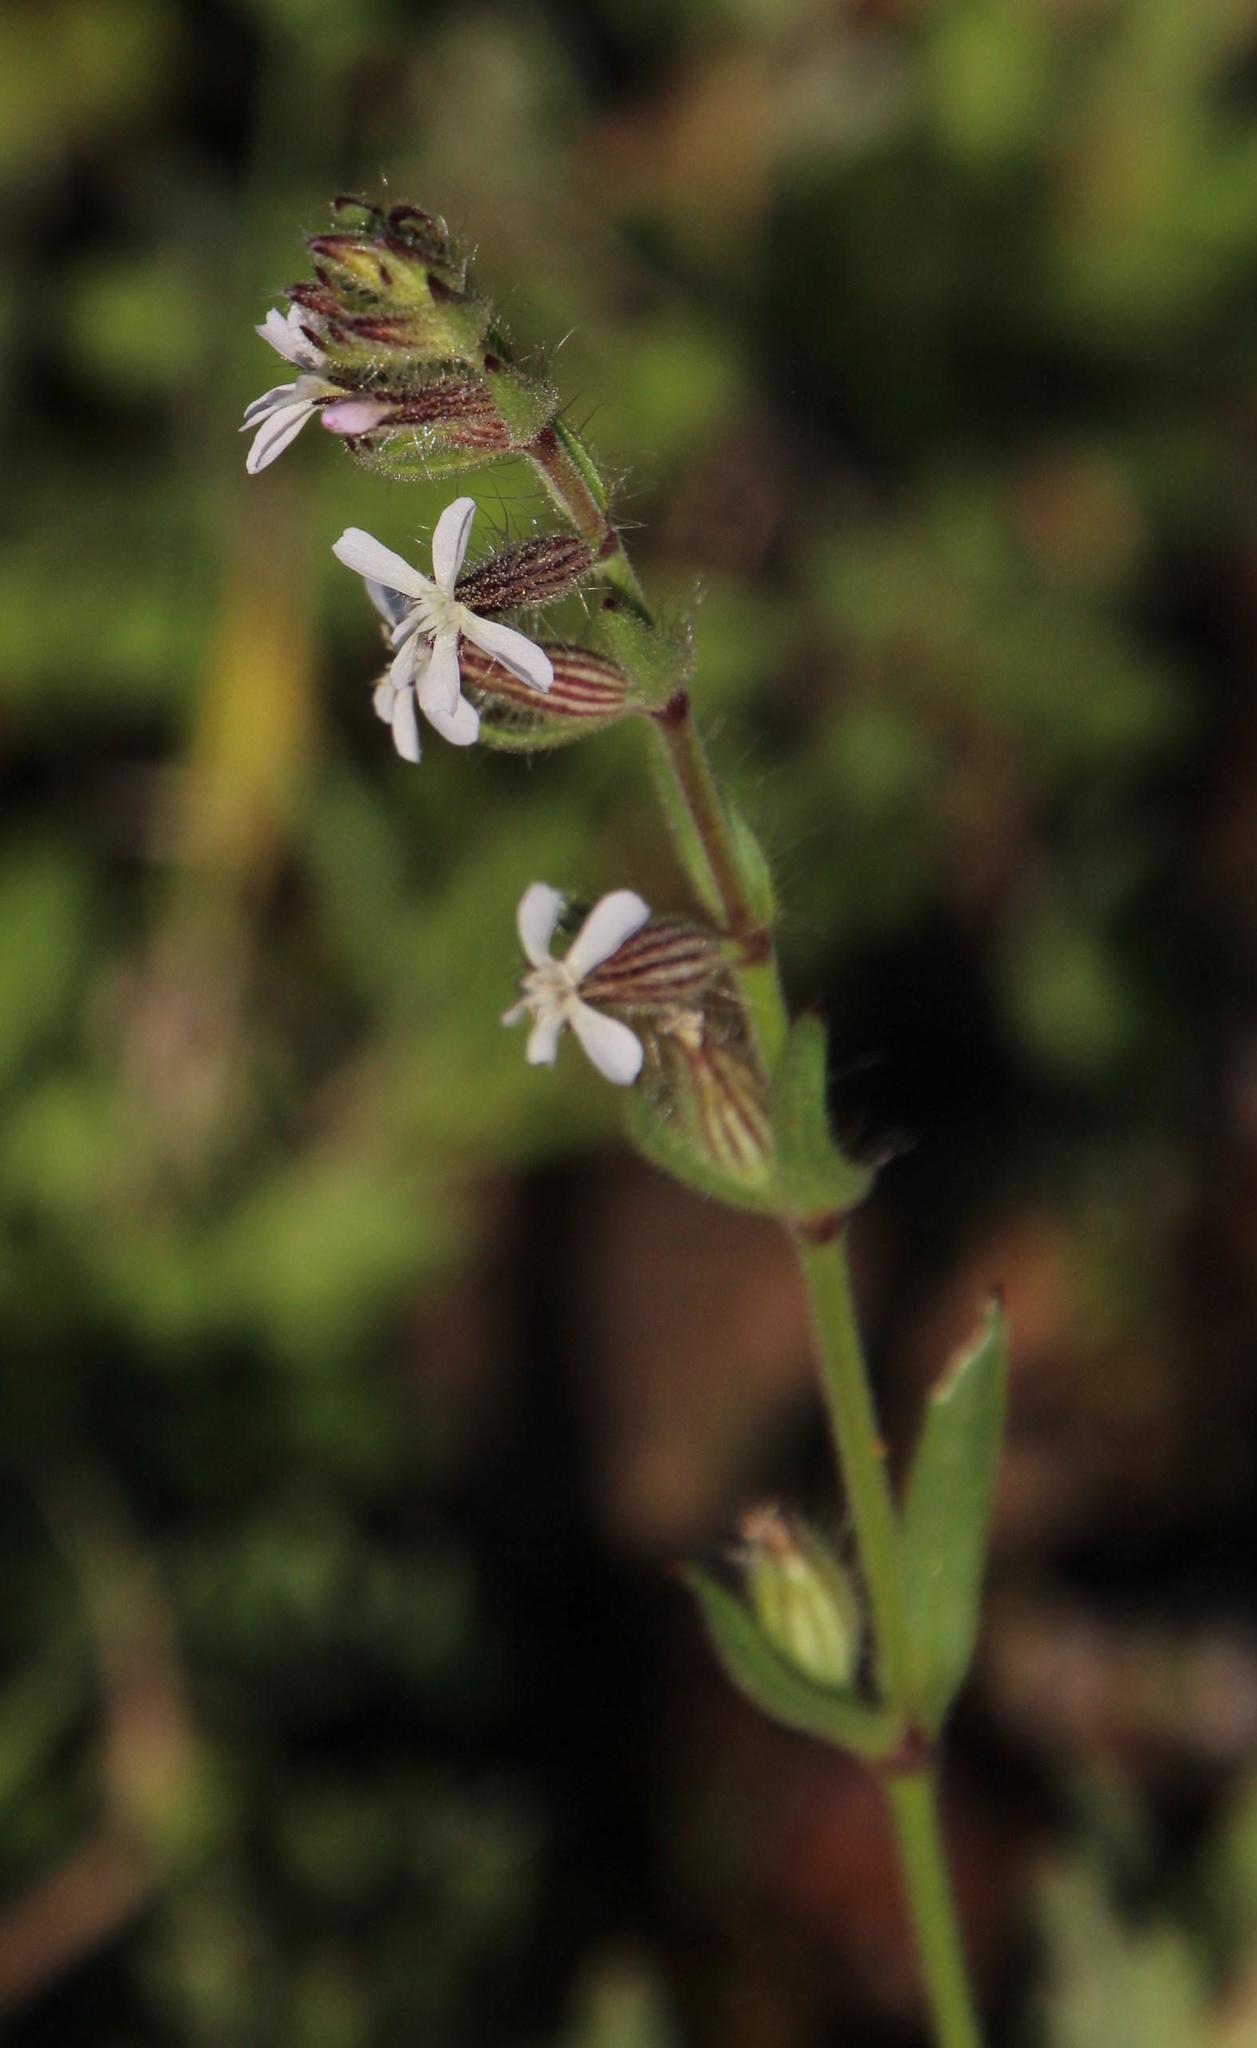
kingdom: Plantae
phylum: Tracheophyta
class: Magnoliopsida
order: Caryophyllales
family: Caryophyllaceae
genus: Silene
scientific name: Silene gallica
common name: Small-flowered catchfly
